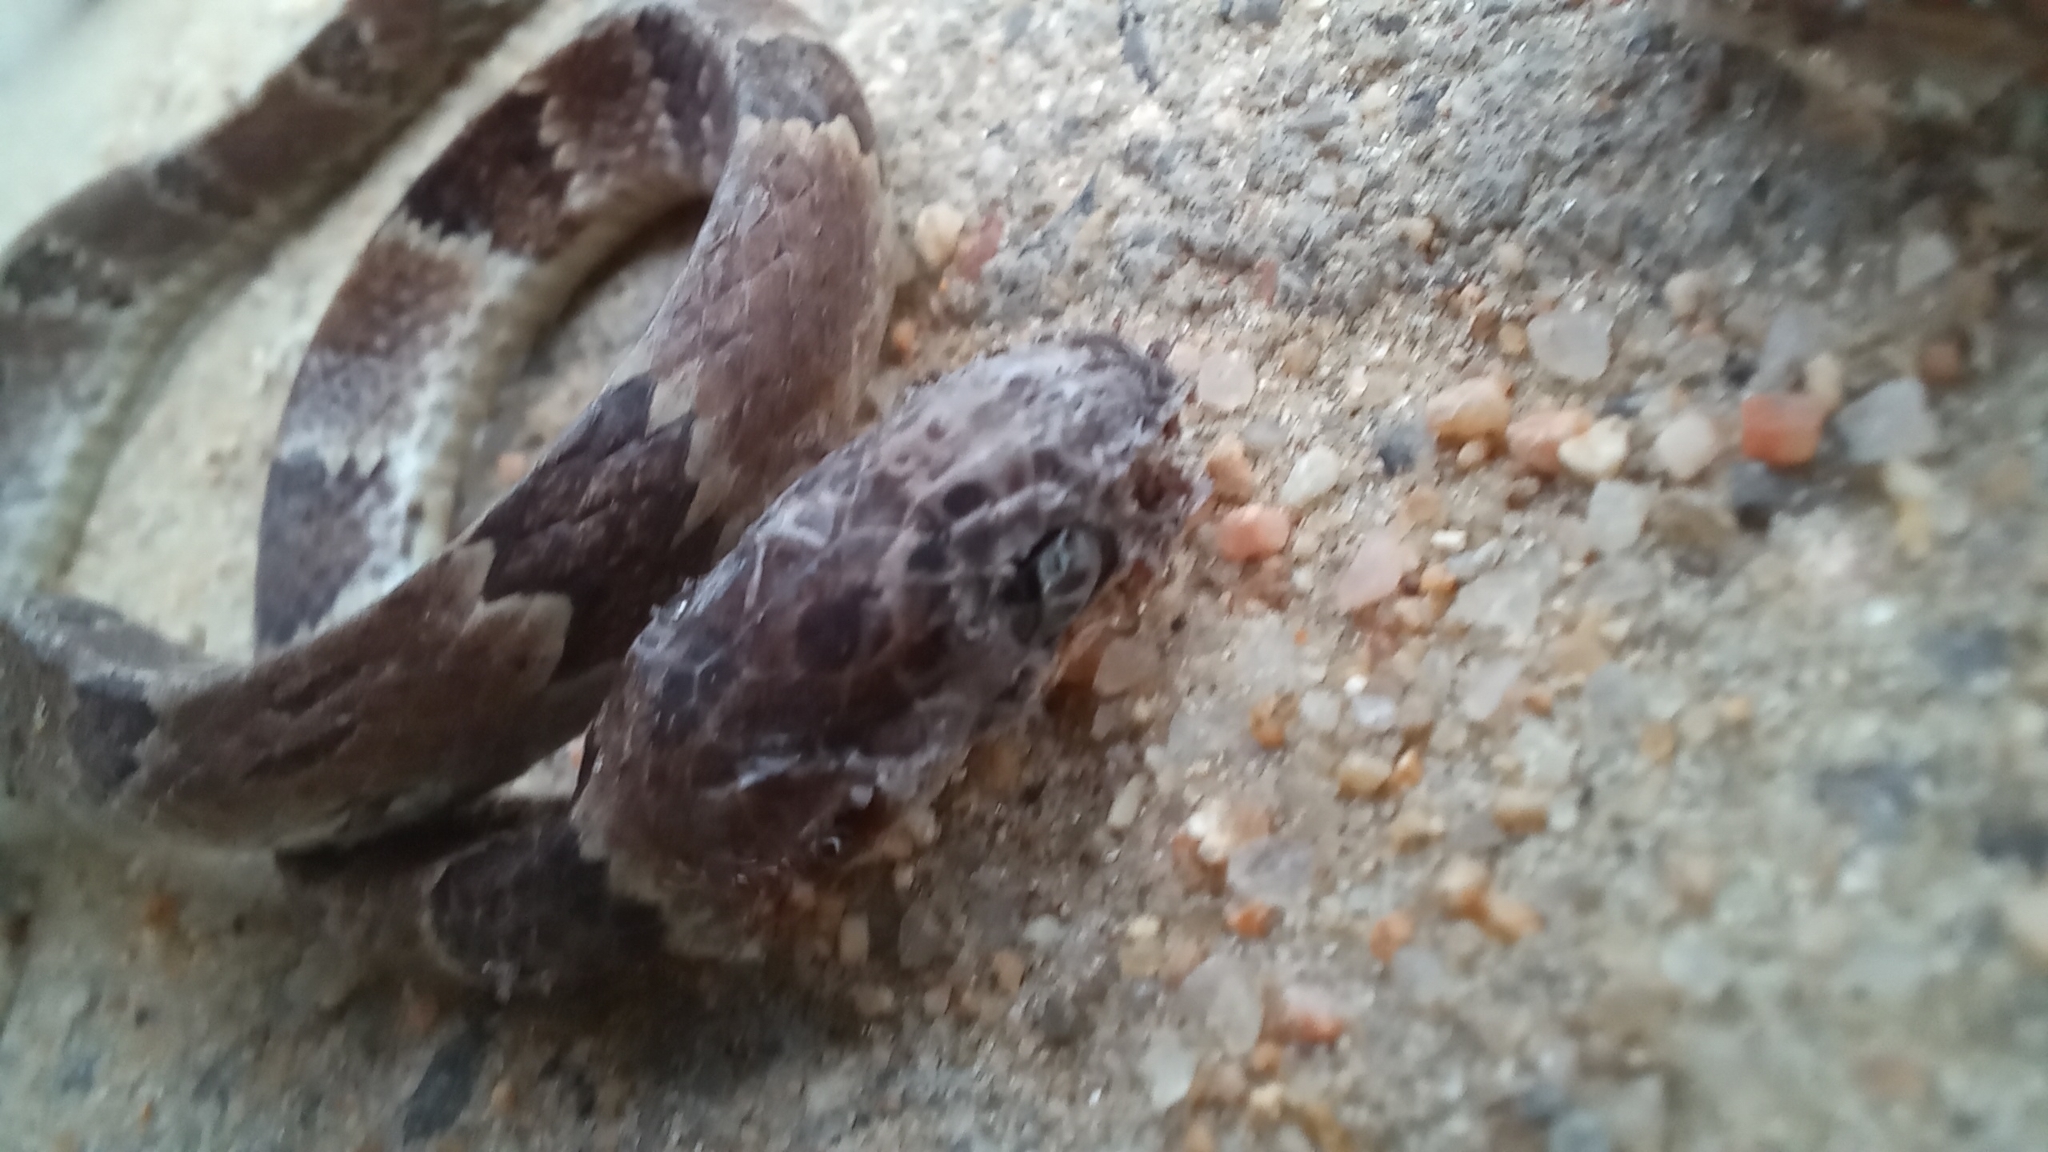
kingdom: Animalia
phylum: Chordata
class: Squamata
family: Colubridae
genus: Dipsas
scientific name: Dipsas neuwiedi
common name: Neuwied's tree snake
